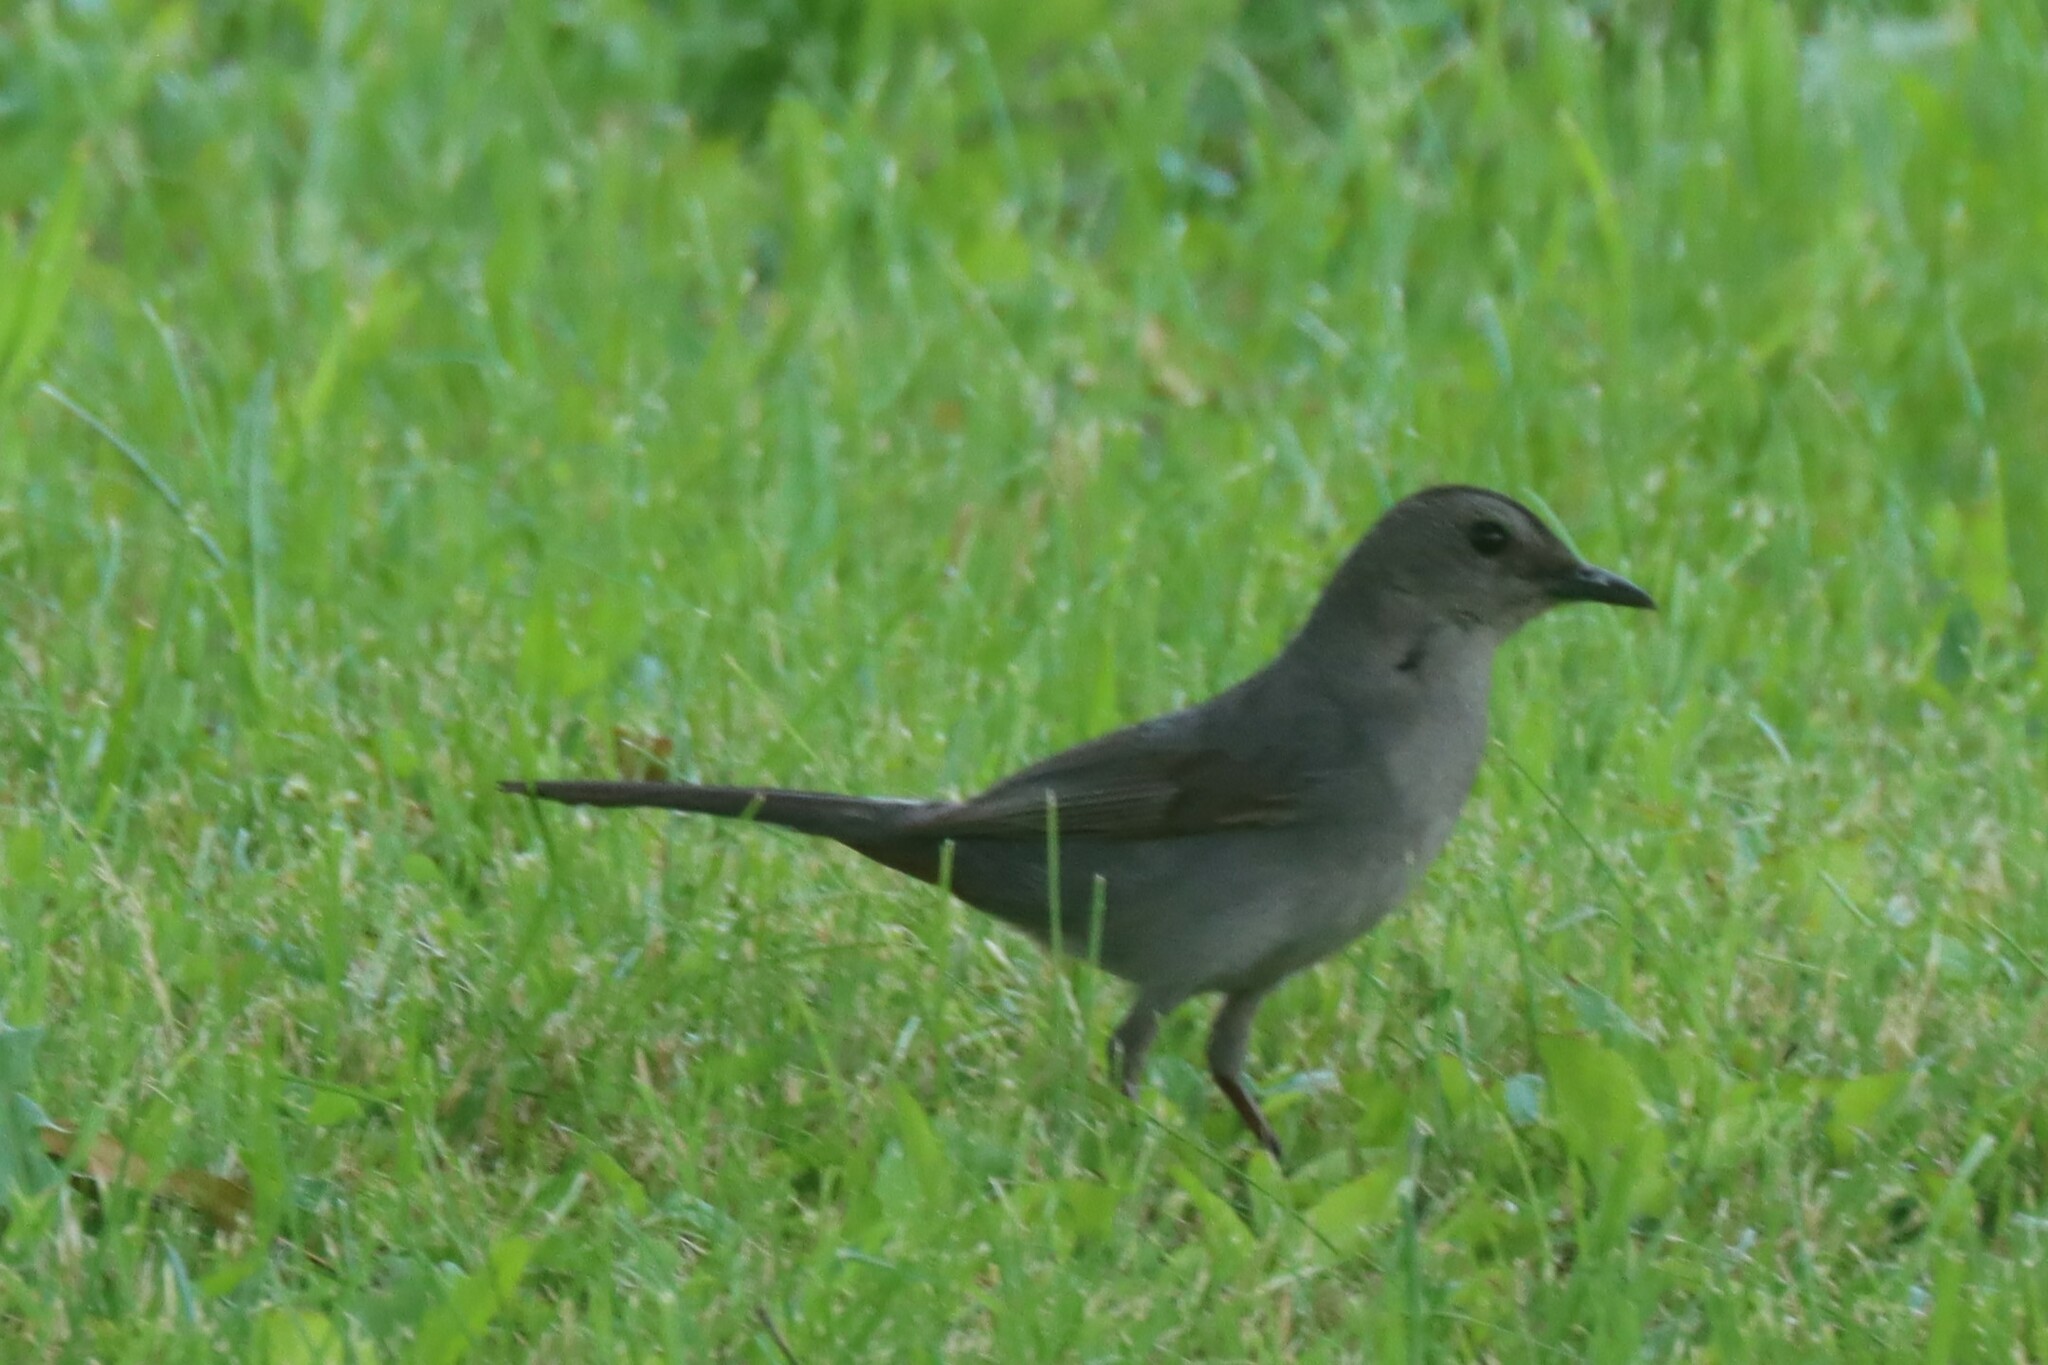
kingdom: Animalia
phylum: Chordata
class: Aves
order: Passeriformes
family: Mimidae
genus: Dumetella
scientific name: Dumetella carolinensis
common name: Gray catbird
